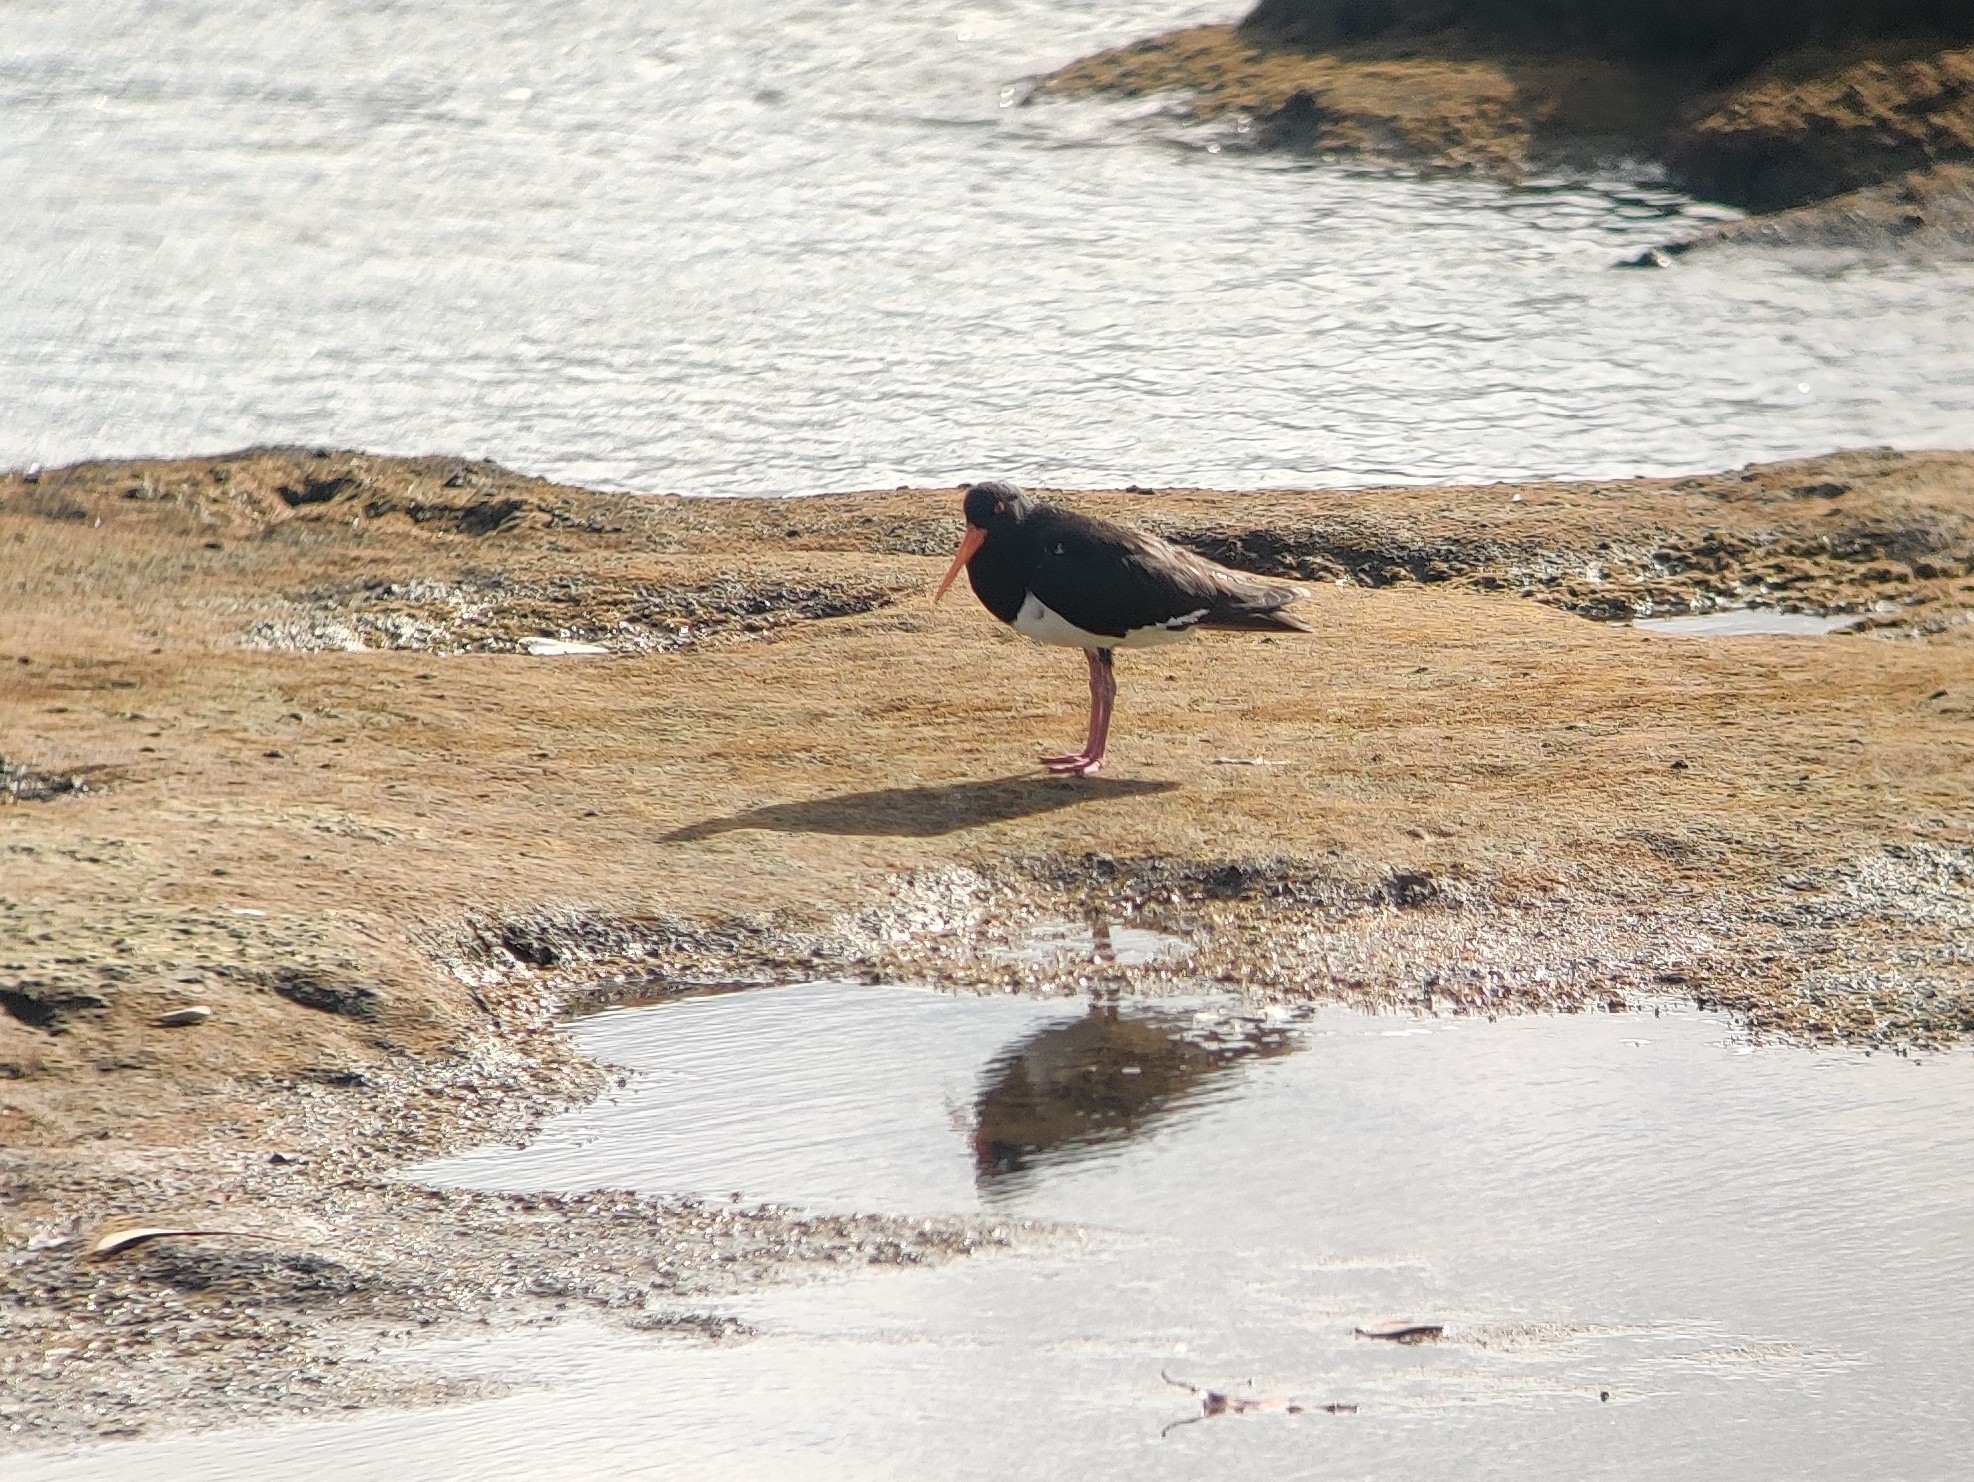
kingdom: Animalia
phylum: Chordata
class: Aves
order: Charadriiformes
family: Haematopodidae
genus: Haematopus
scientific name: Haematopus longirostris
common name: Pied oystercatcher
